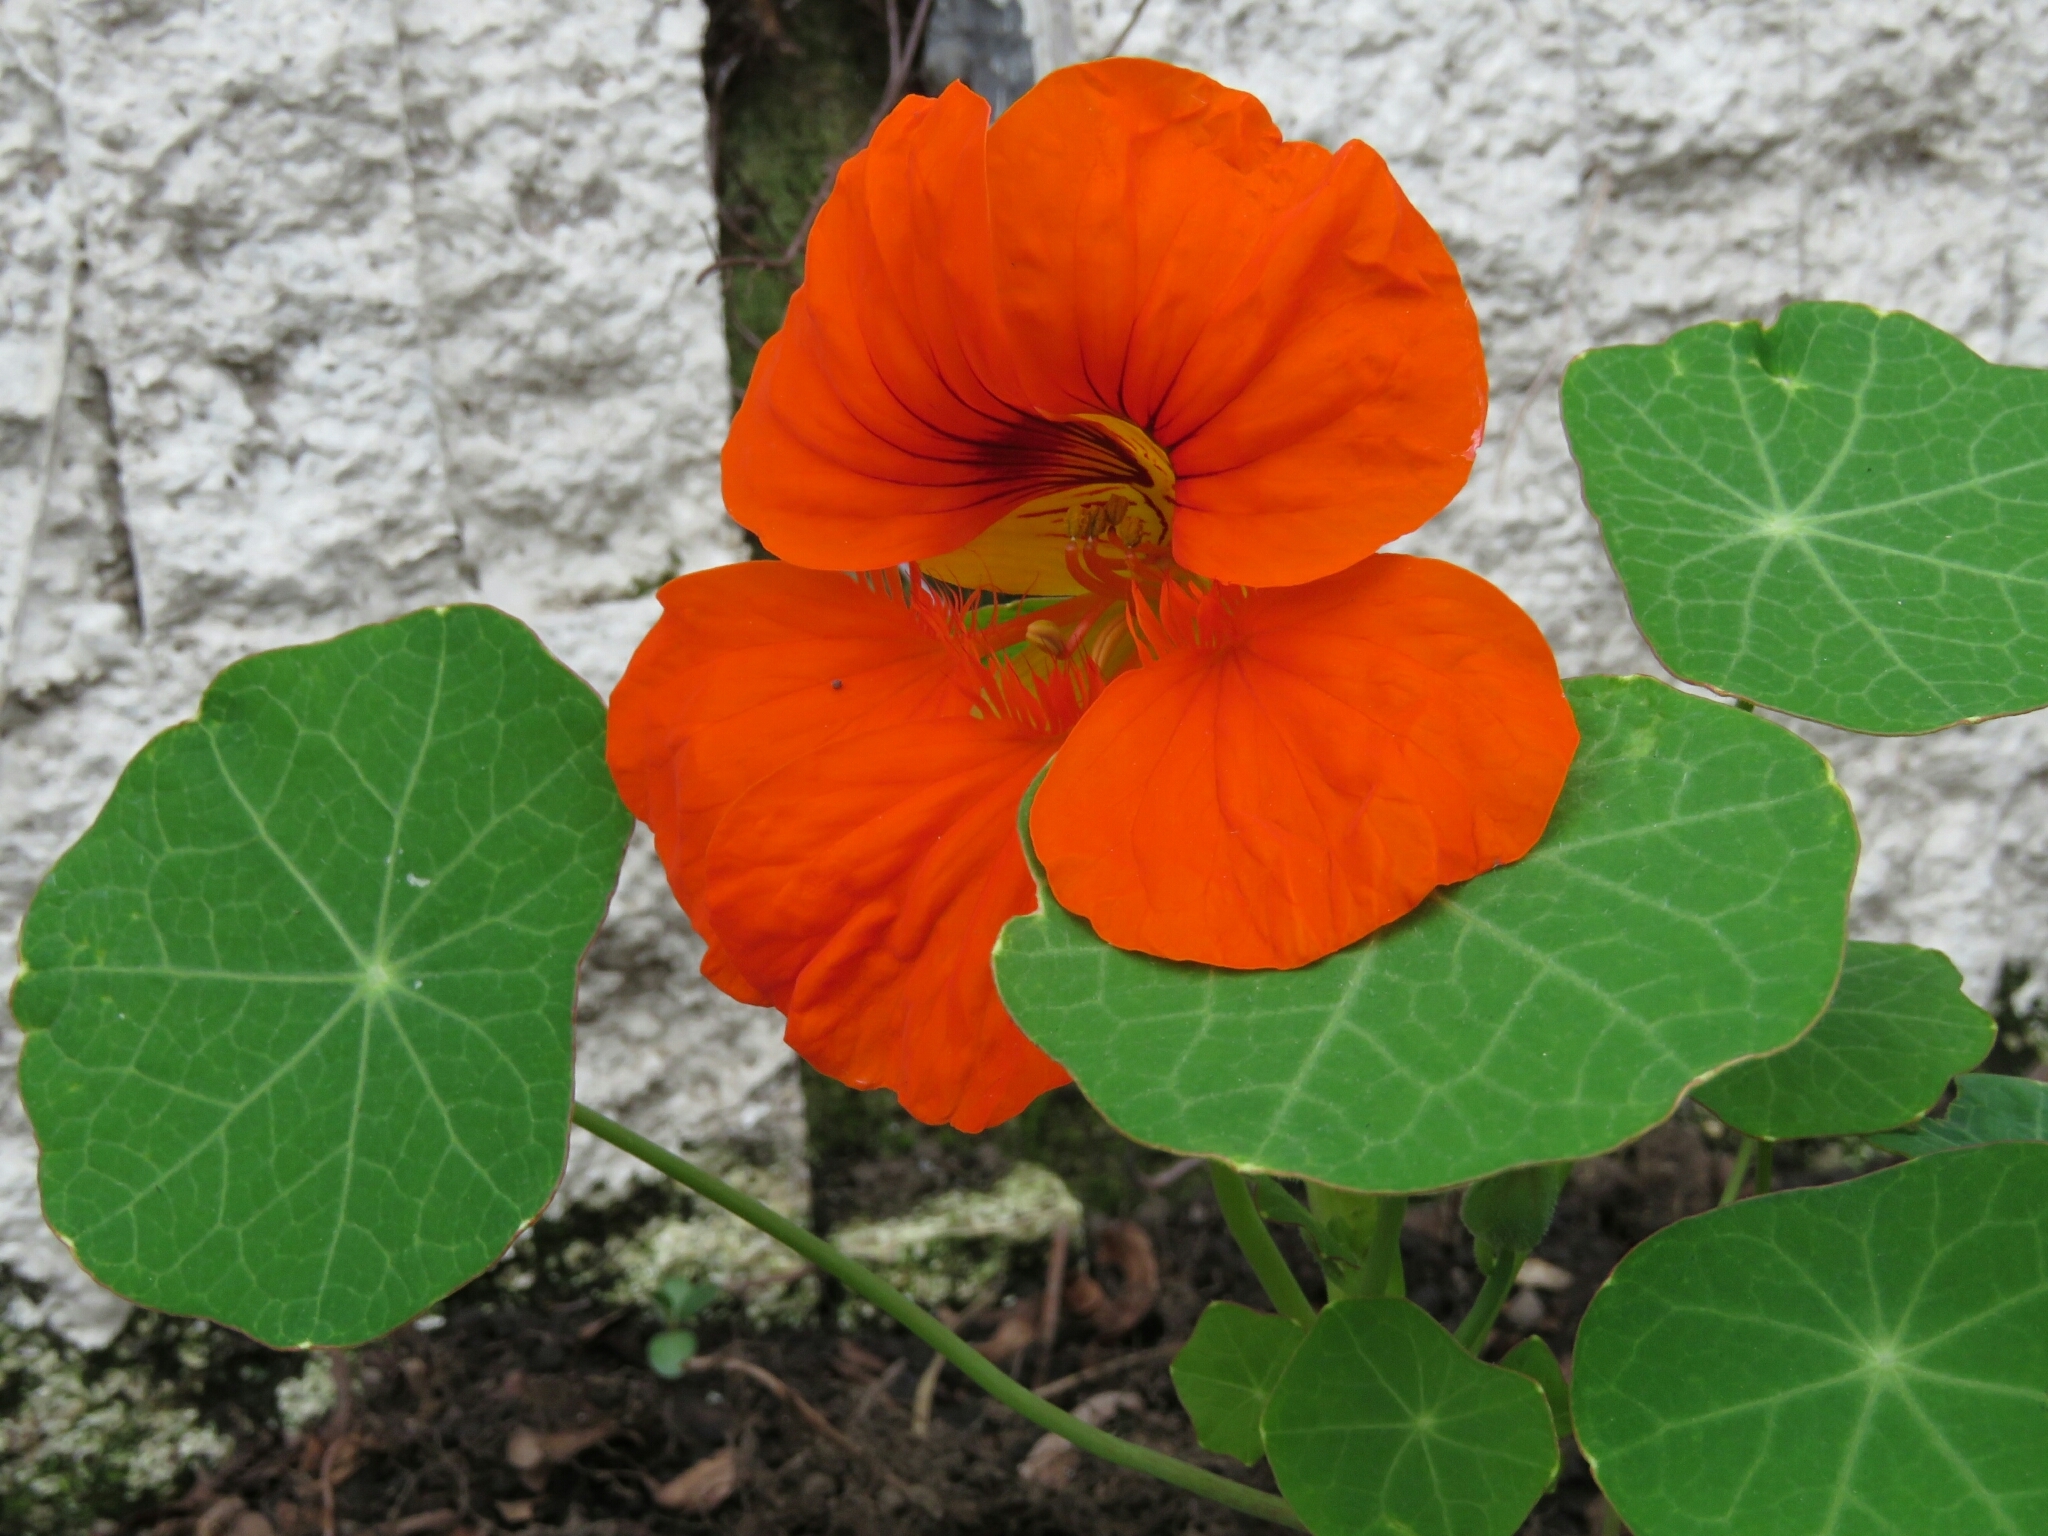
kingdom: Plantae
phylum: Tracheophyta
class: Magnoliopsida
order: Brassicales
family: Tropaeolaceae
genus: Tropaeolum
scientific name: Tropaeolum majus
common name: Nasturtium
